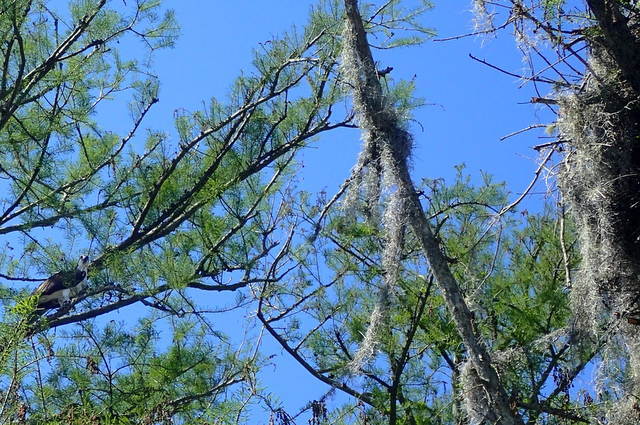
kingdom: Animalia
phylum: Chordata
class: Aves
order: Accipitriformes
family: Pandionidae
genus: Pandion
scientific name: Pandion haliaetus
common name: Osprey
